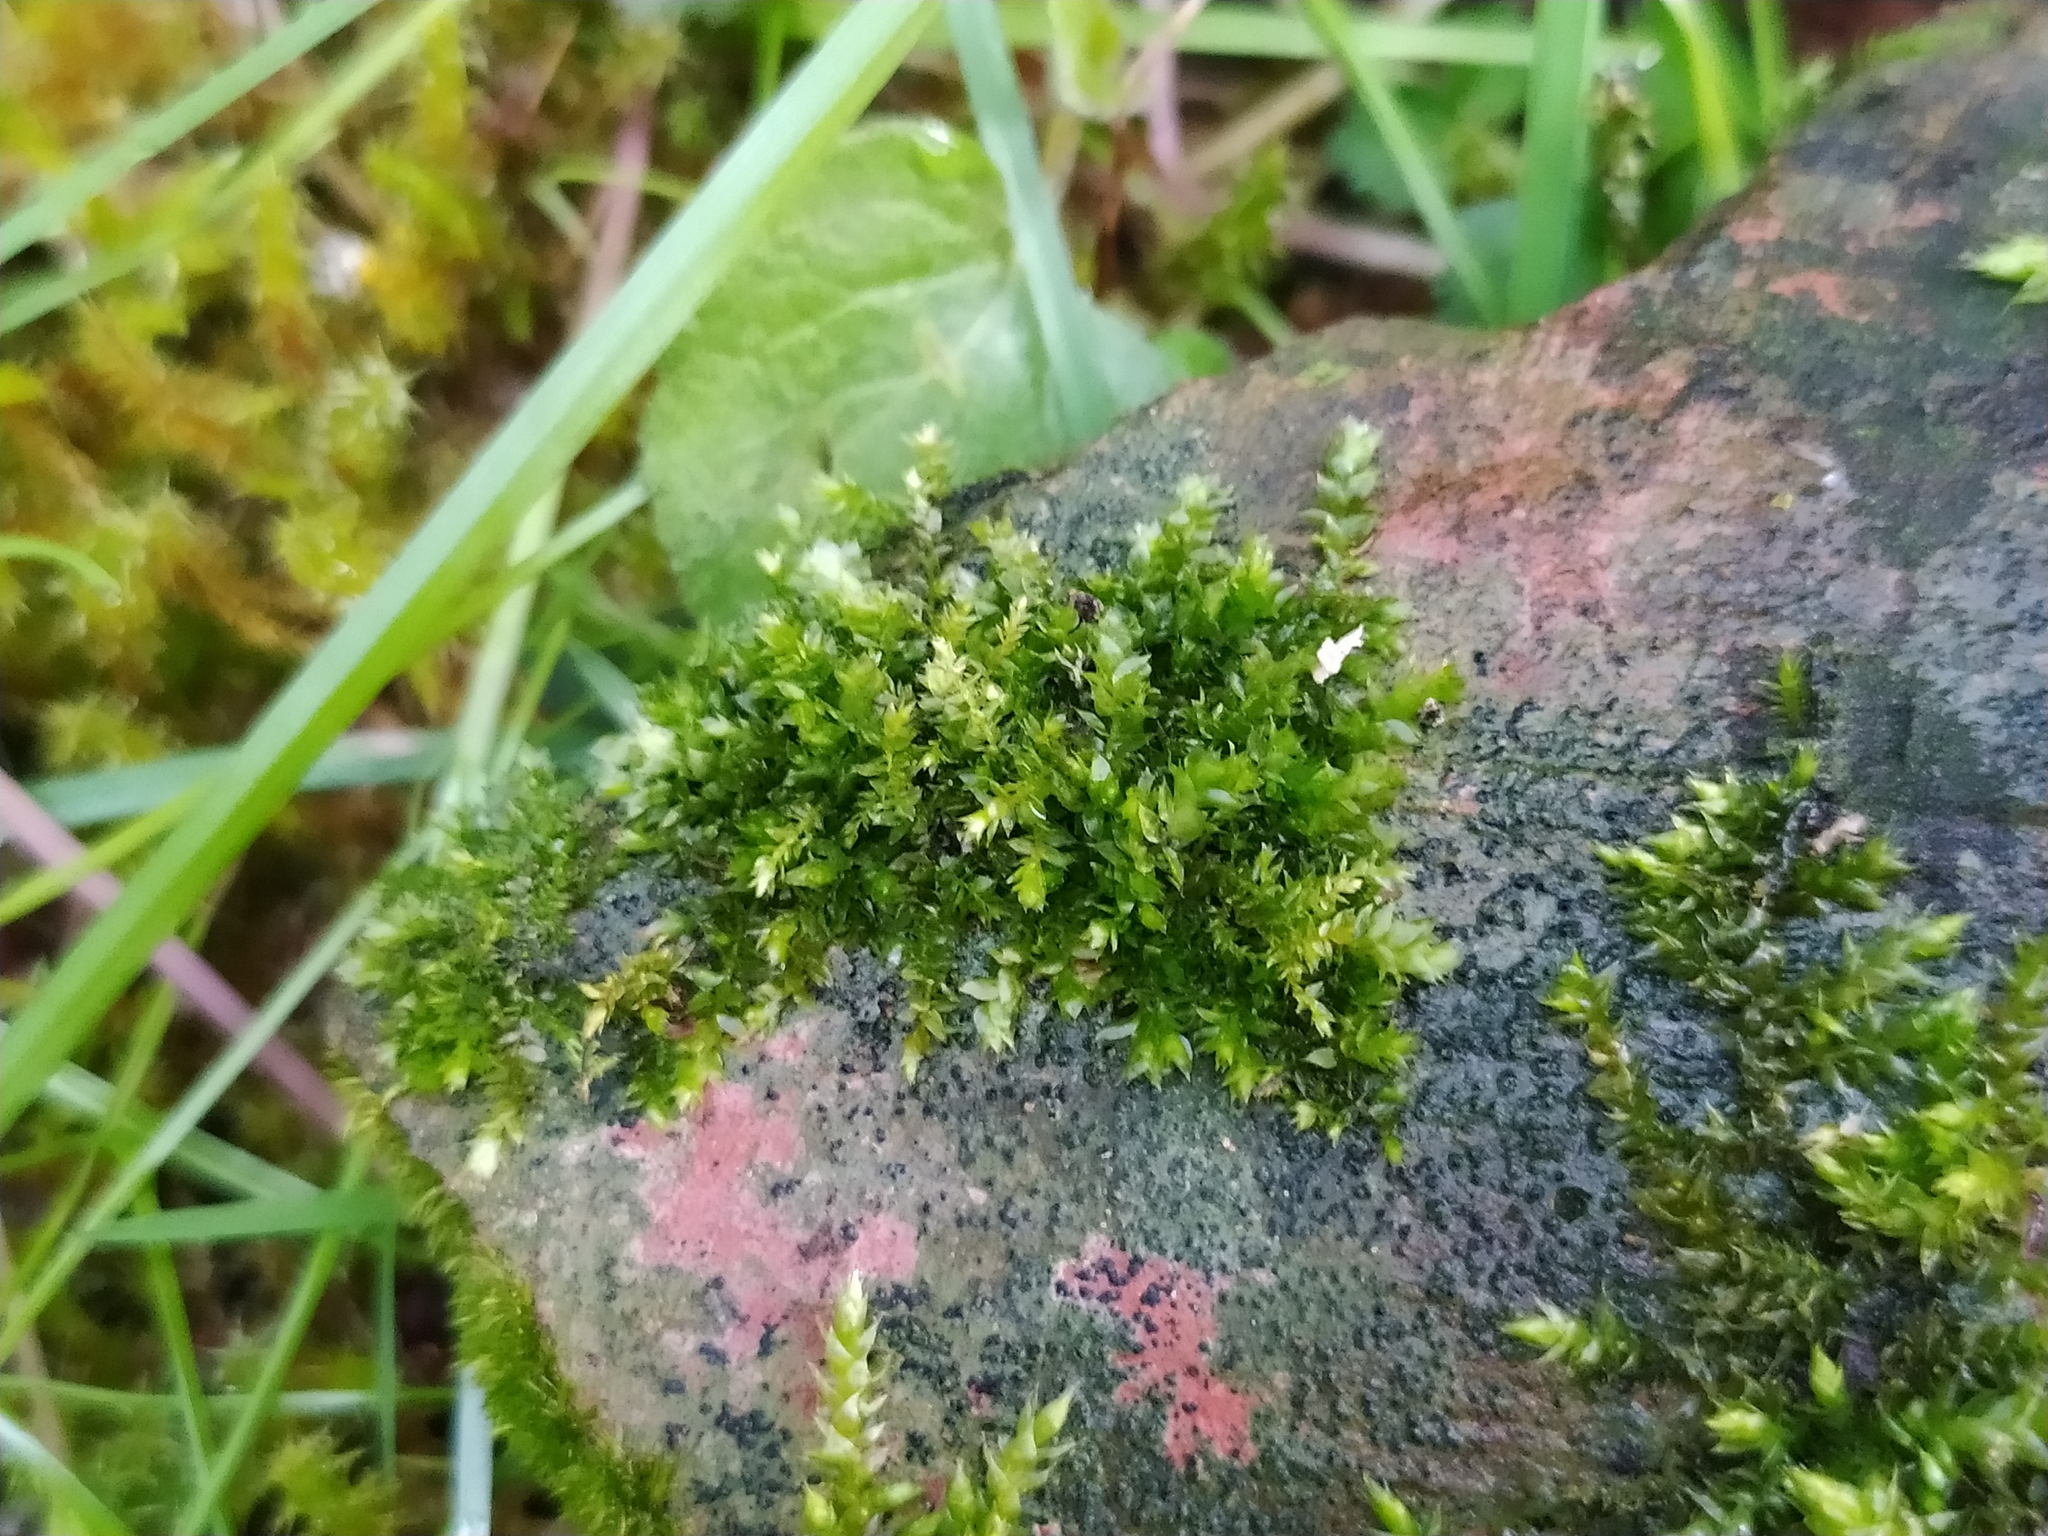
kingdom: Plantae
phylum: Bryophyta
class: Bryopsida
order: Hypnales
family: Brachytheciaceae
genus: Rhynchostegium
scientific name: Rhynchostegium rotundifolium
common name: Round-leaved feather-moss
